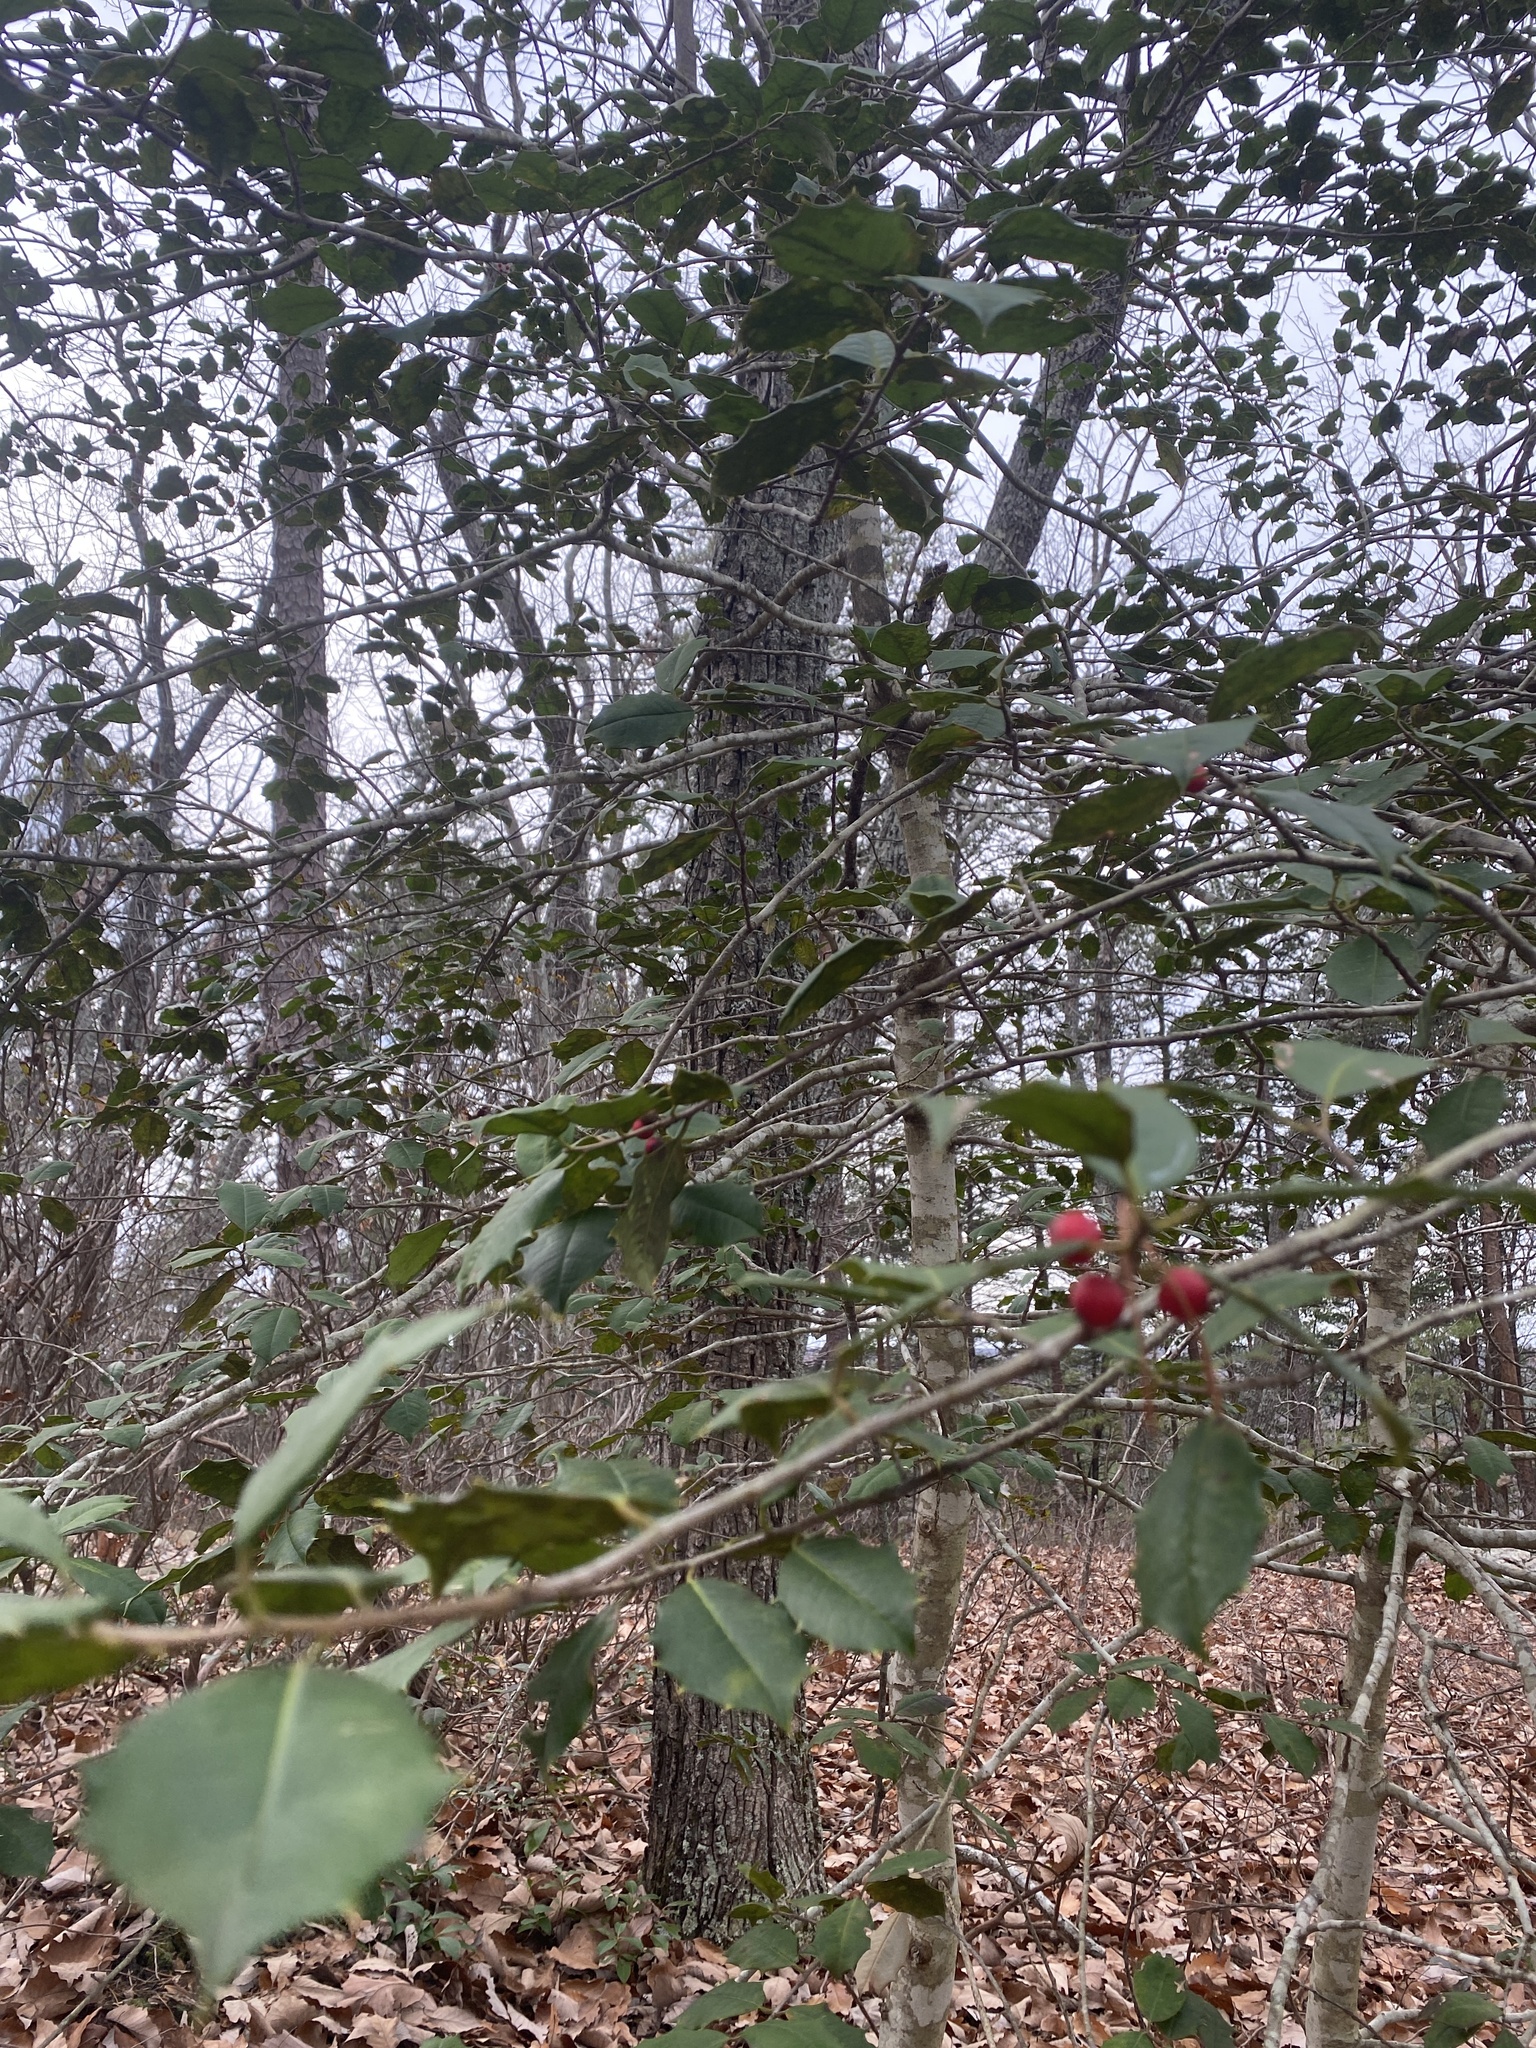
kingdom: Plantae
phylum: Tracheophyta
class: Magnoliopsida
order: Aquifoliales
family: Aquifoliaceae
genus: Ilex
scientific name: Ilex opaca
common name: American holly
